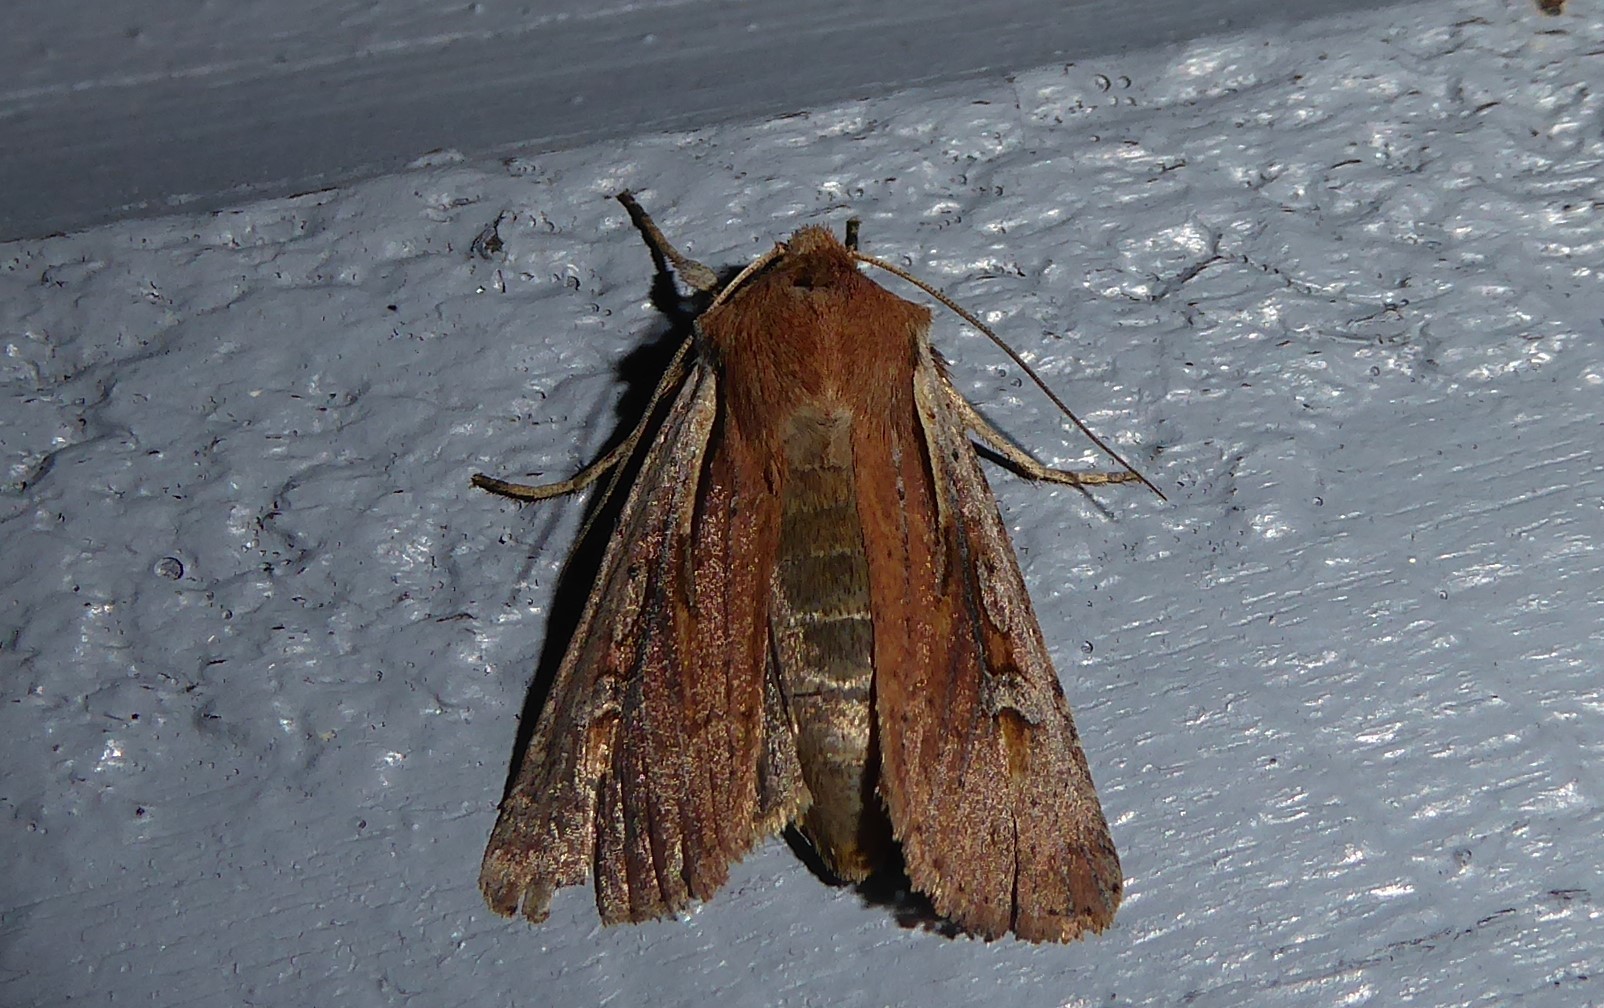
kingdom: Animalia
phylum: Arthropoda
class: Insecta
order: Lepidoptera
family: Noctuidae
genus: Ichneutica
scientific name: Ichneutica atristriga
